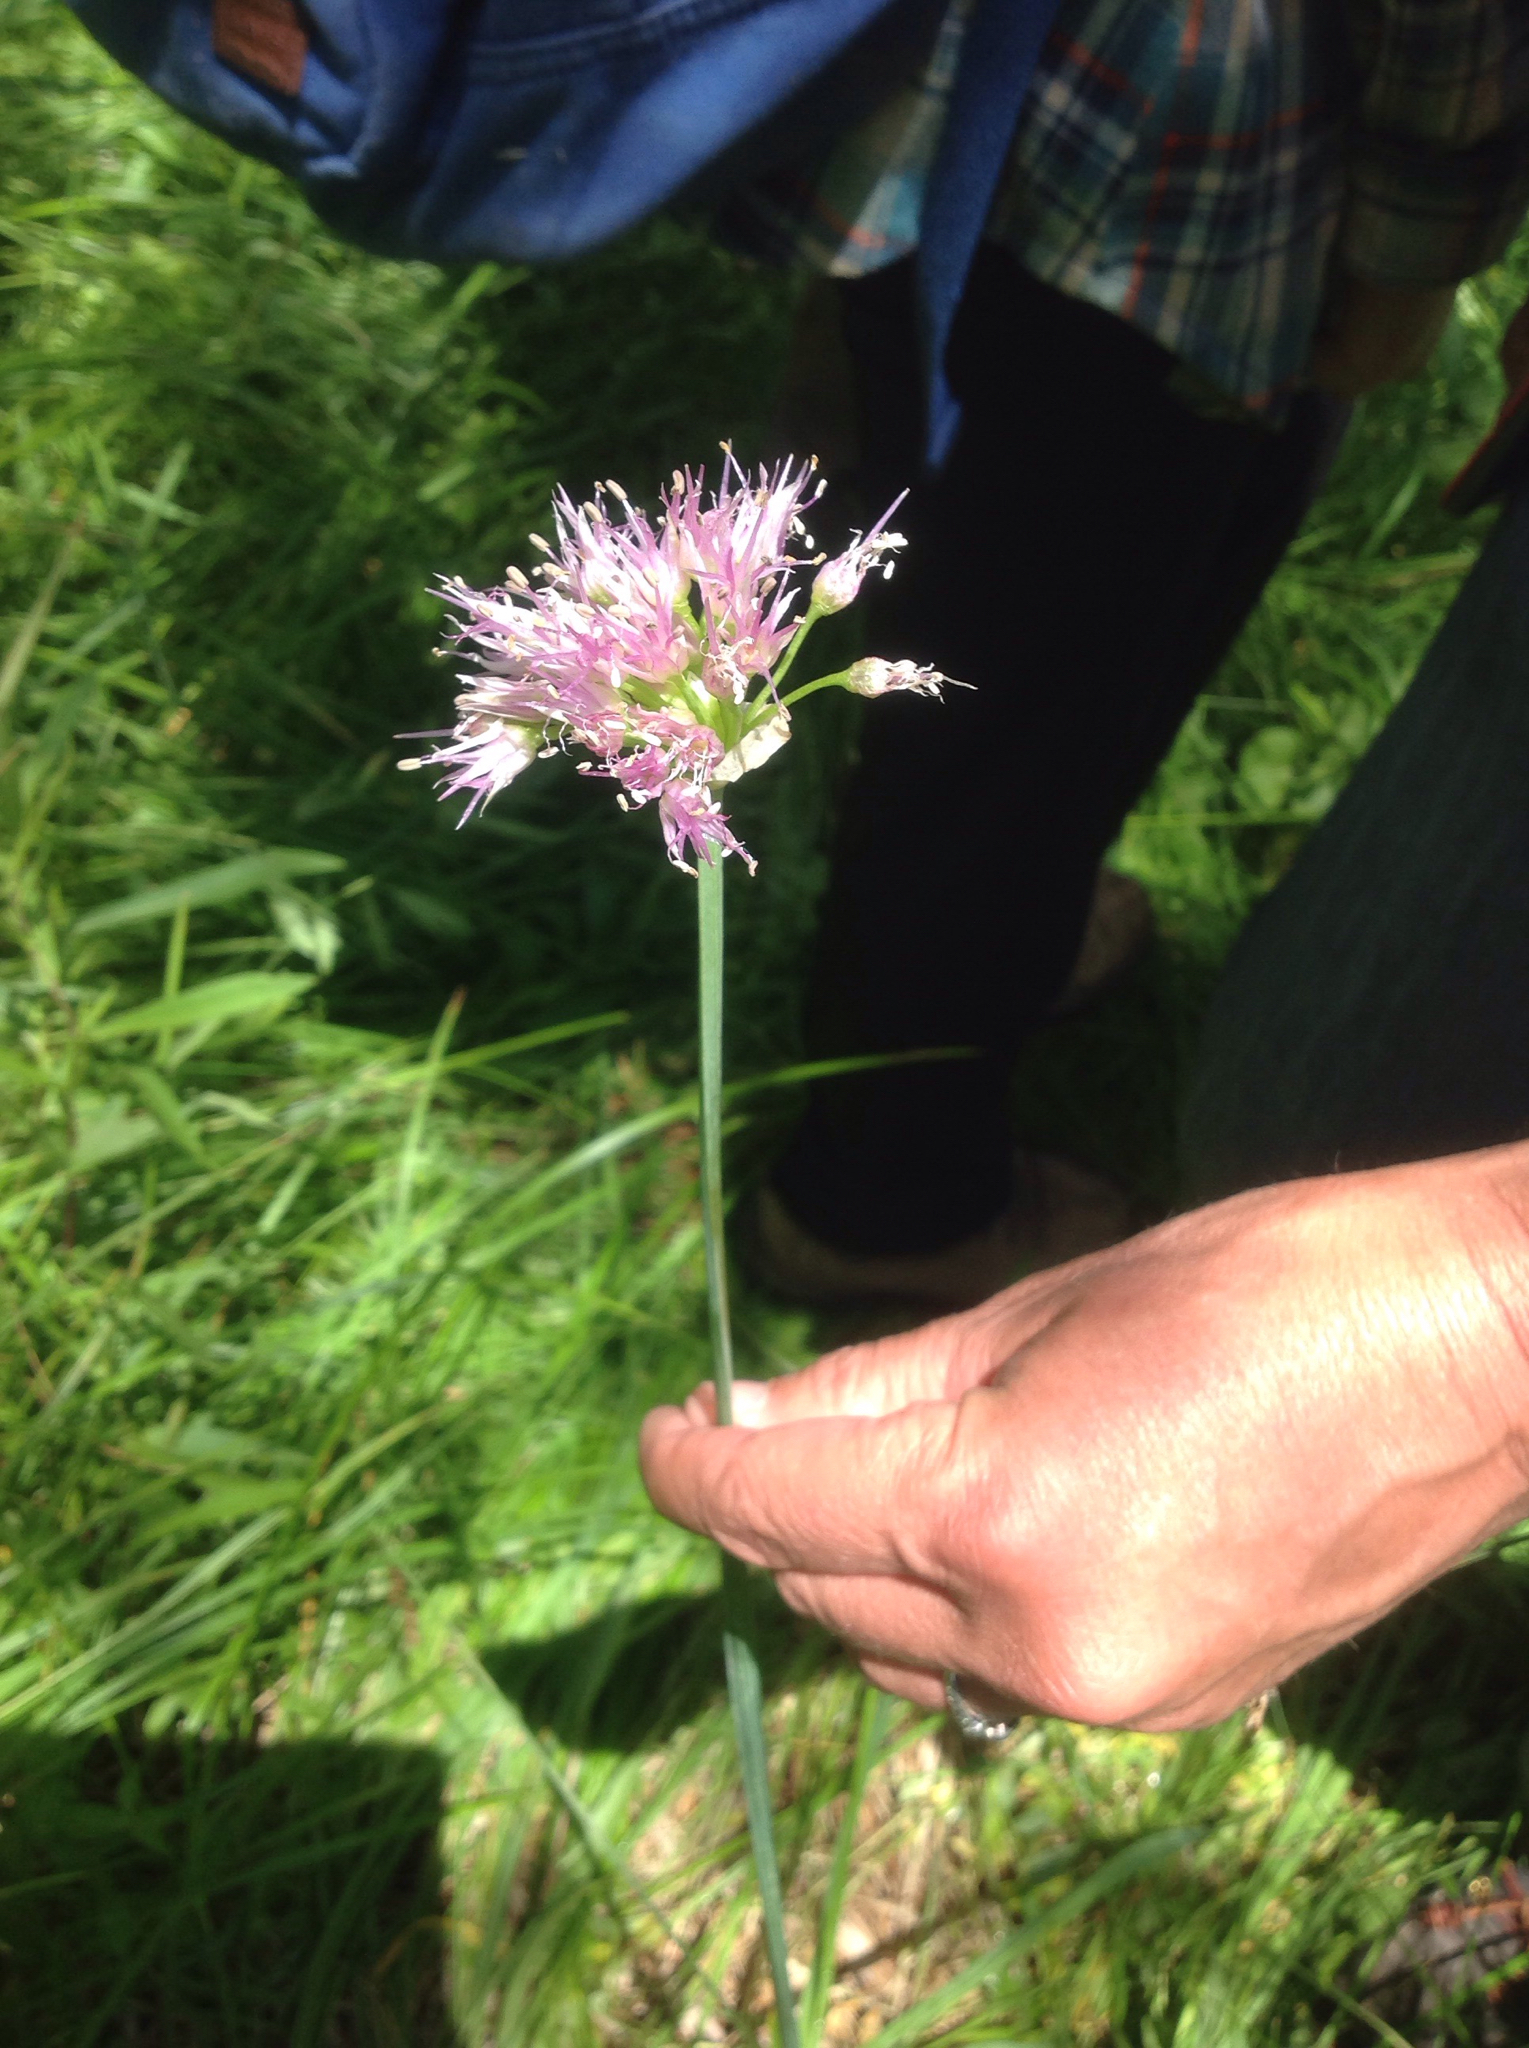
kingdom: Plantae
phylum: Tracheophyta
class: Liliopsida
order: Asparagales
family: Amaryllidaceae
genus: Allium
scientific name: Allium validum
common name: Pacific mountain onion
